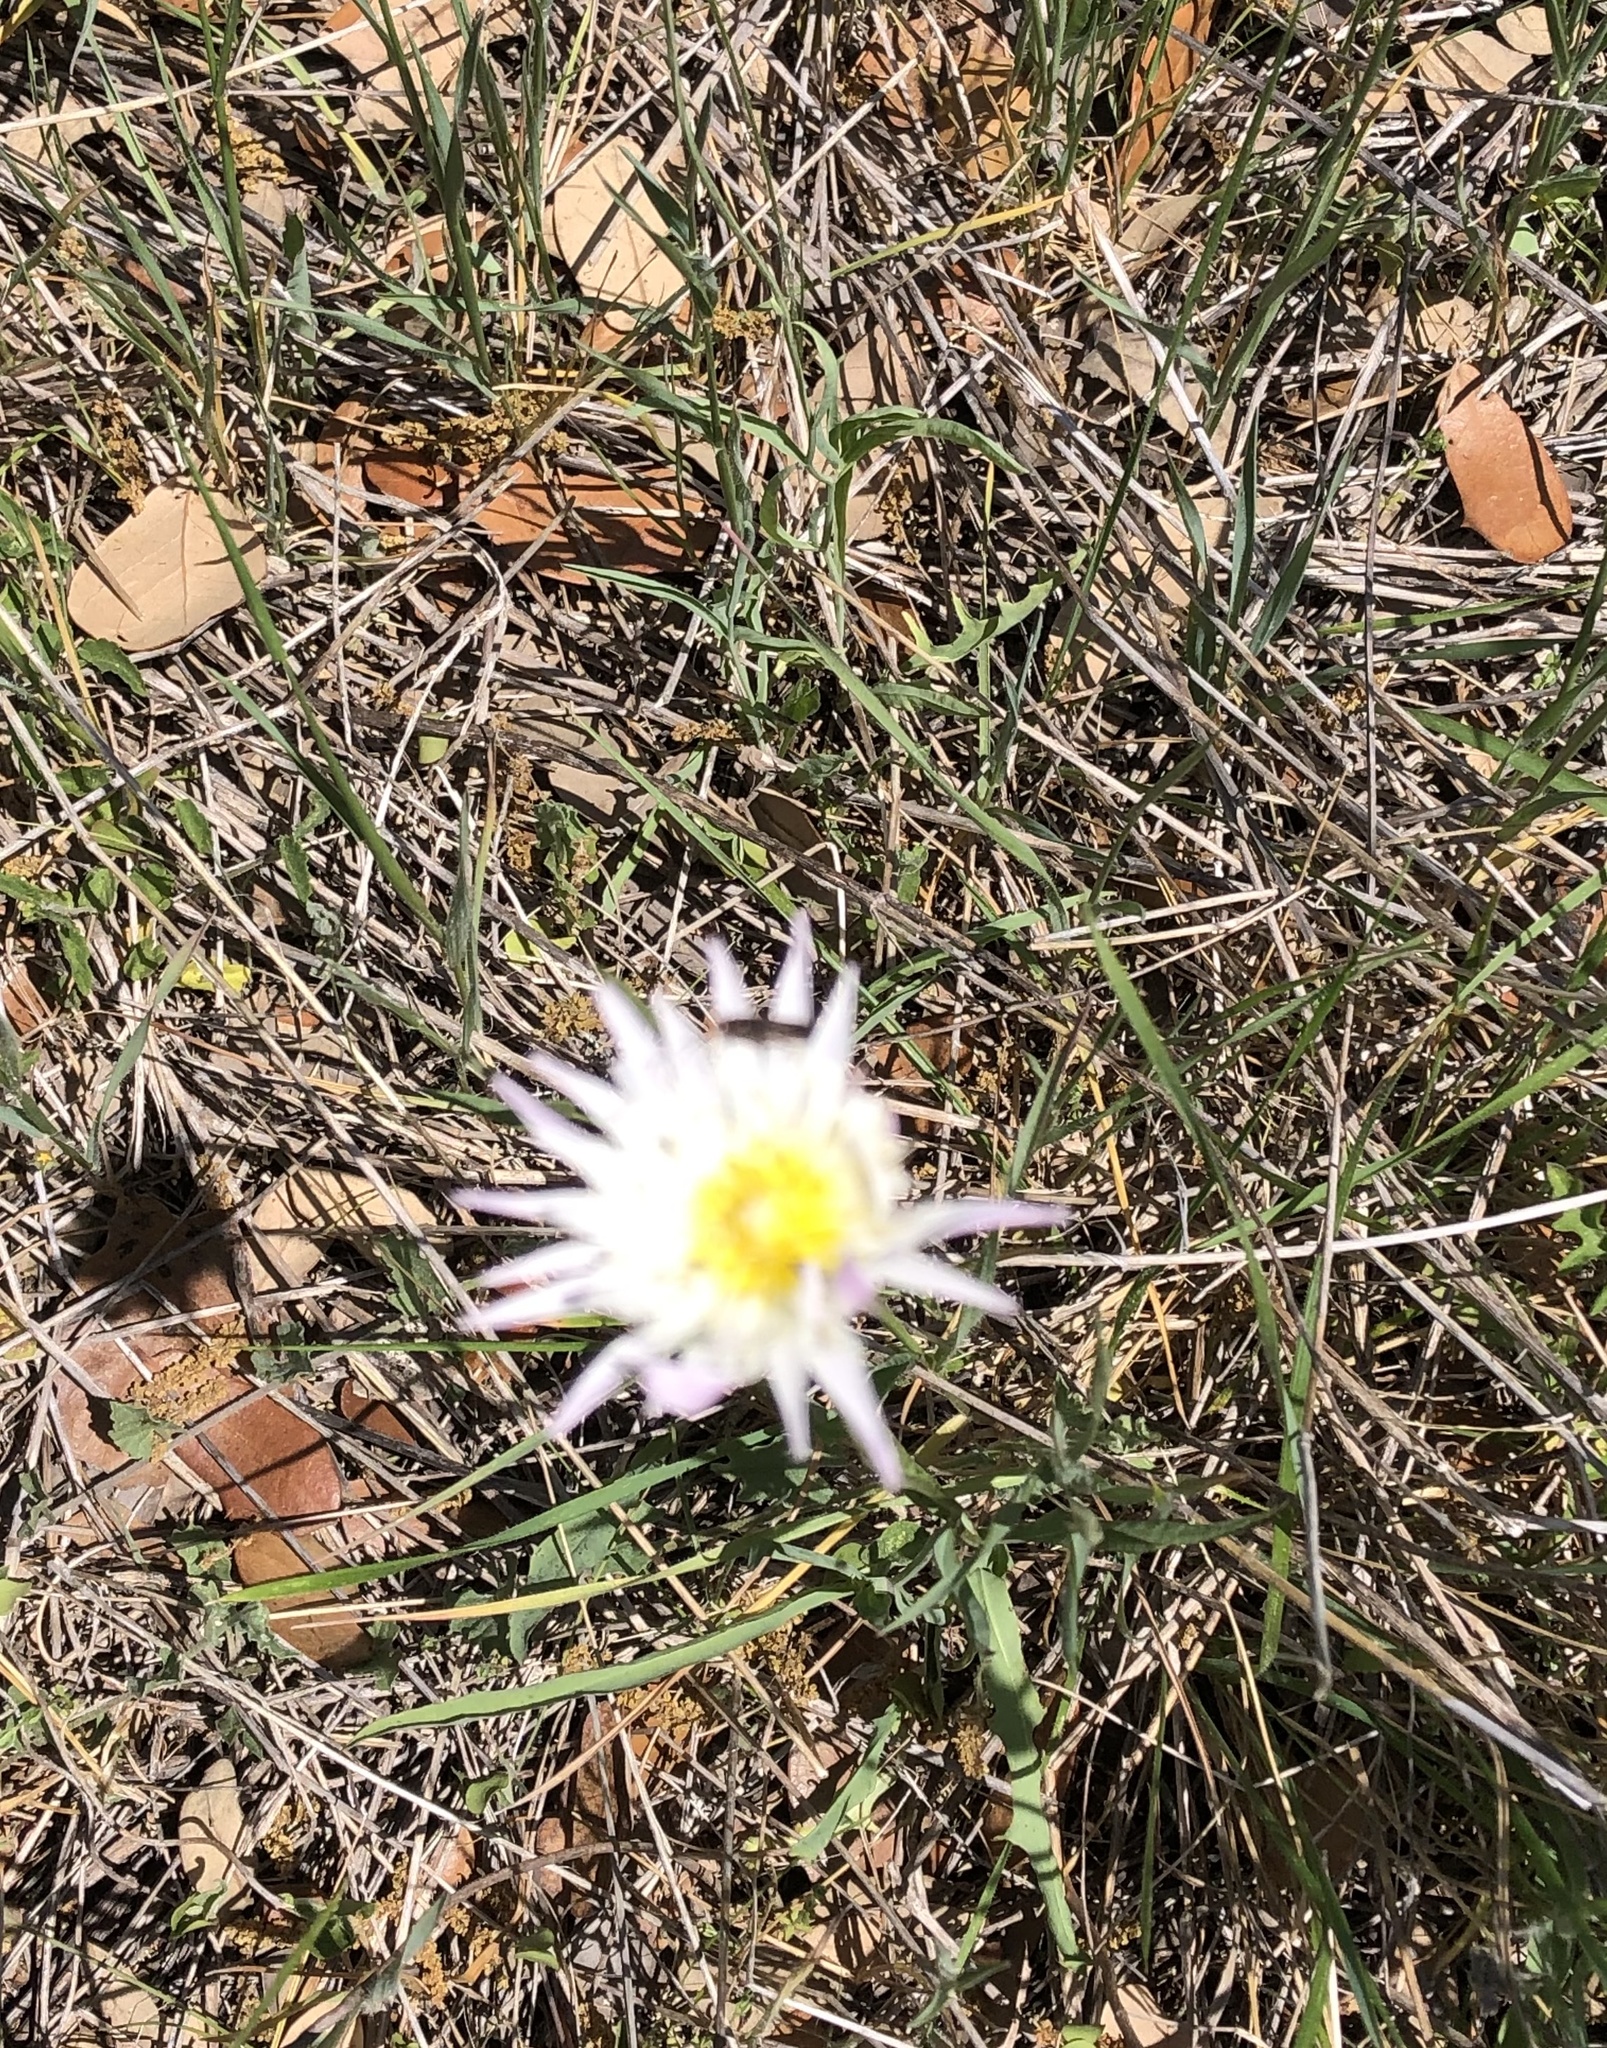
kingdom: Plantae
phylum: Tracheophyta
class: Magnoliopsida
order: Asterales
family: Asteraceae
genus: Pinaropappus
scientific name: Pinaropappus roseus
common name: Rock-lettuce
